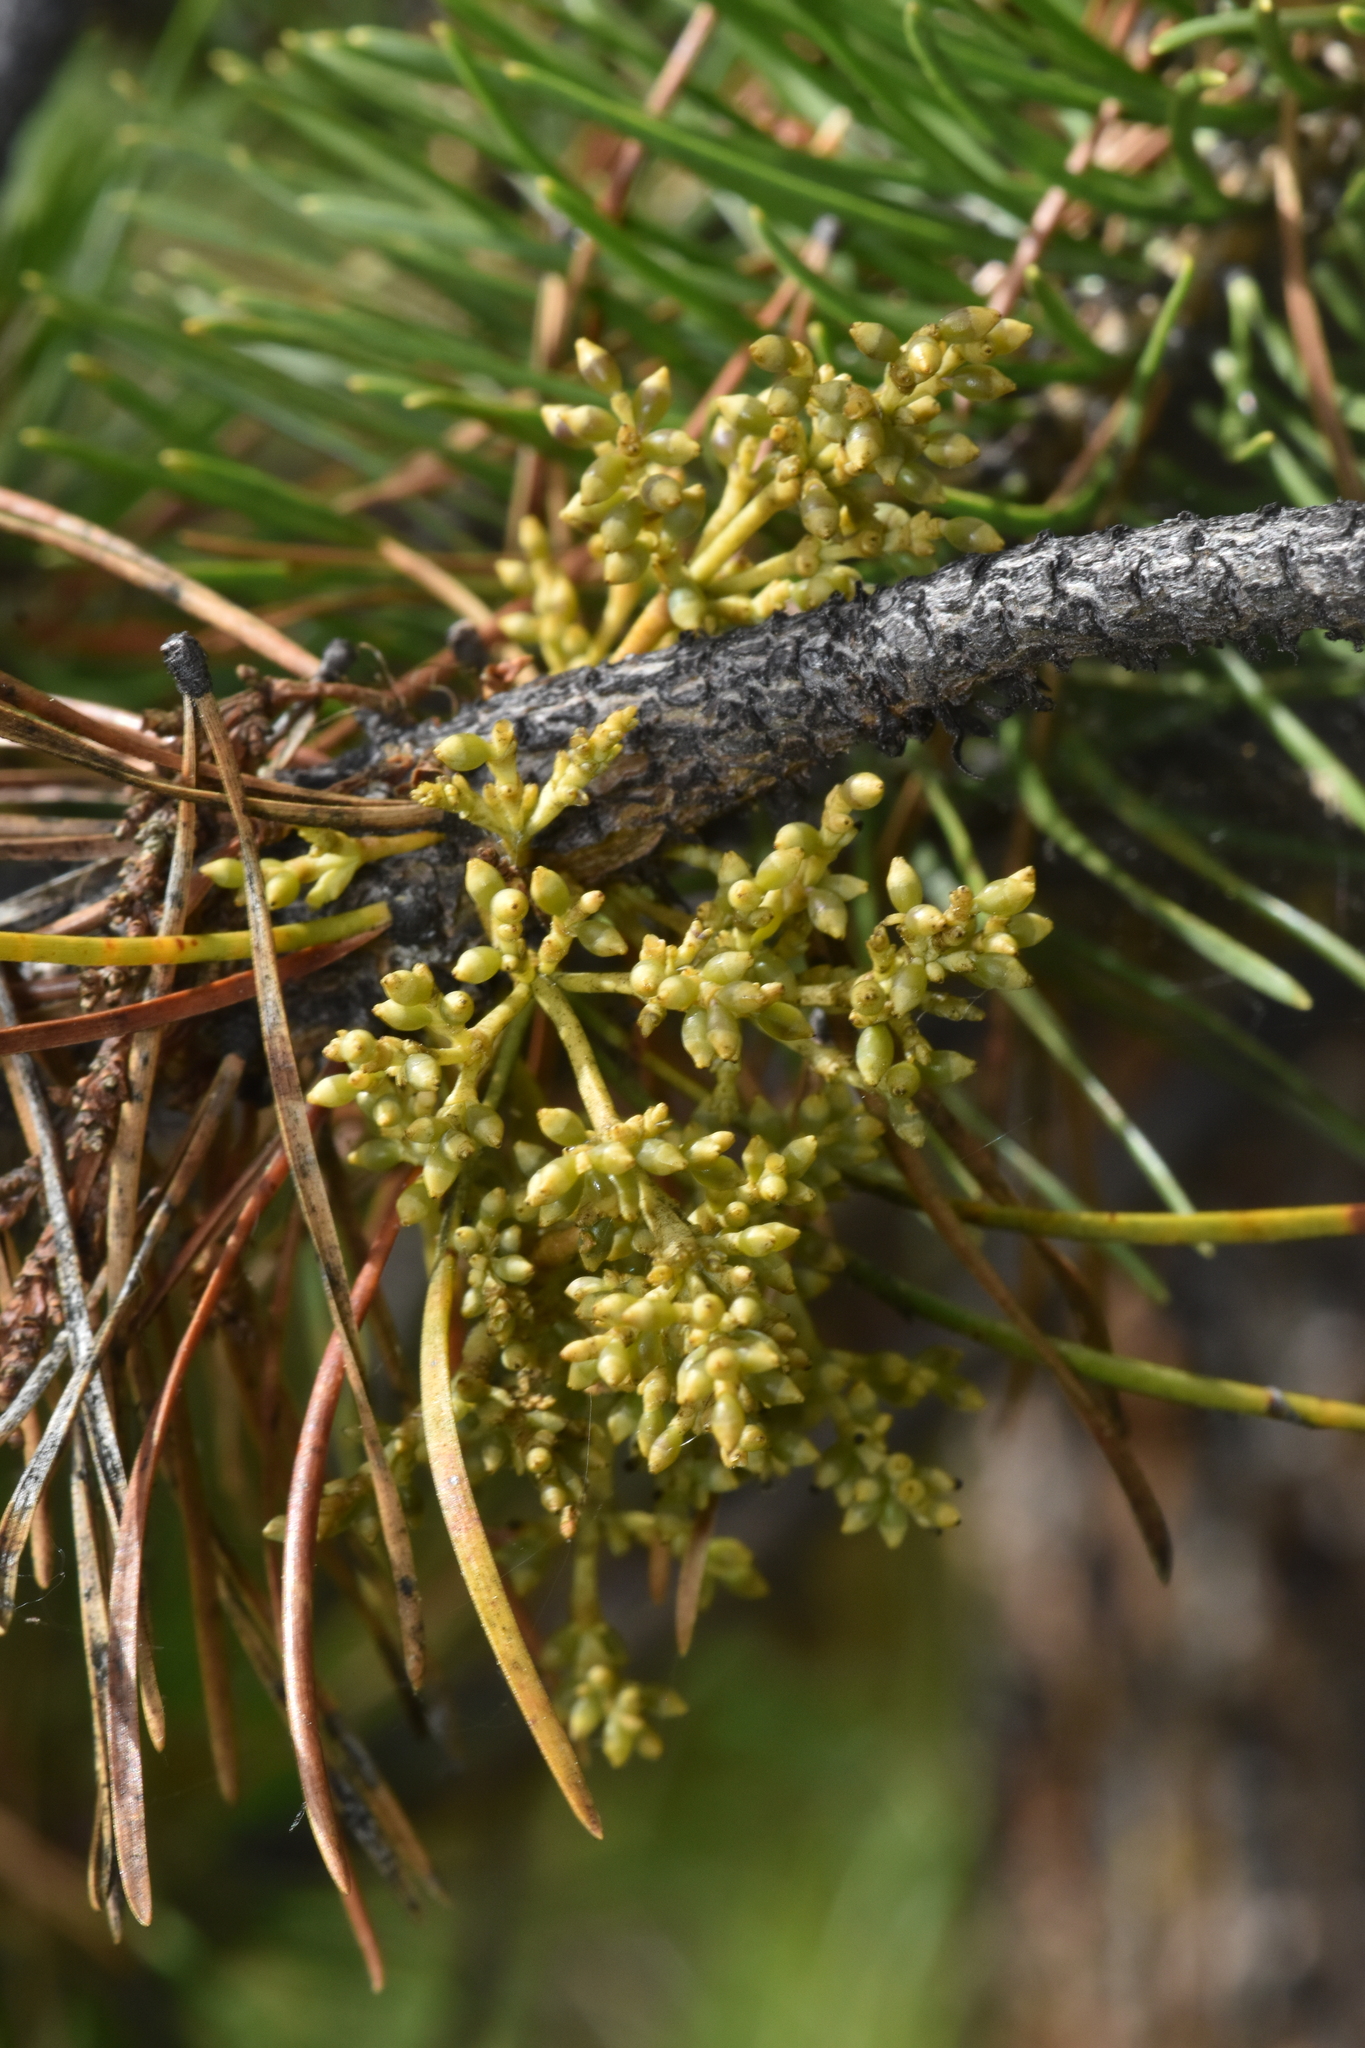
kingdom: Plantae
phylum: Tracheophyta
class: Magnoliopsida
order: Santalales
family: Viscaceae
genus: Arceuthobium
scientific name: Arceuthobium americanum
